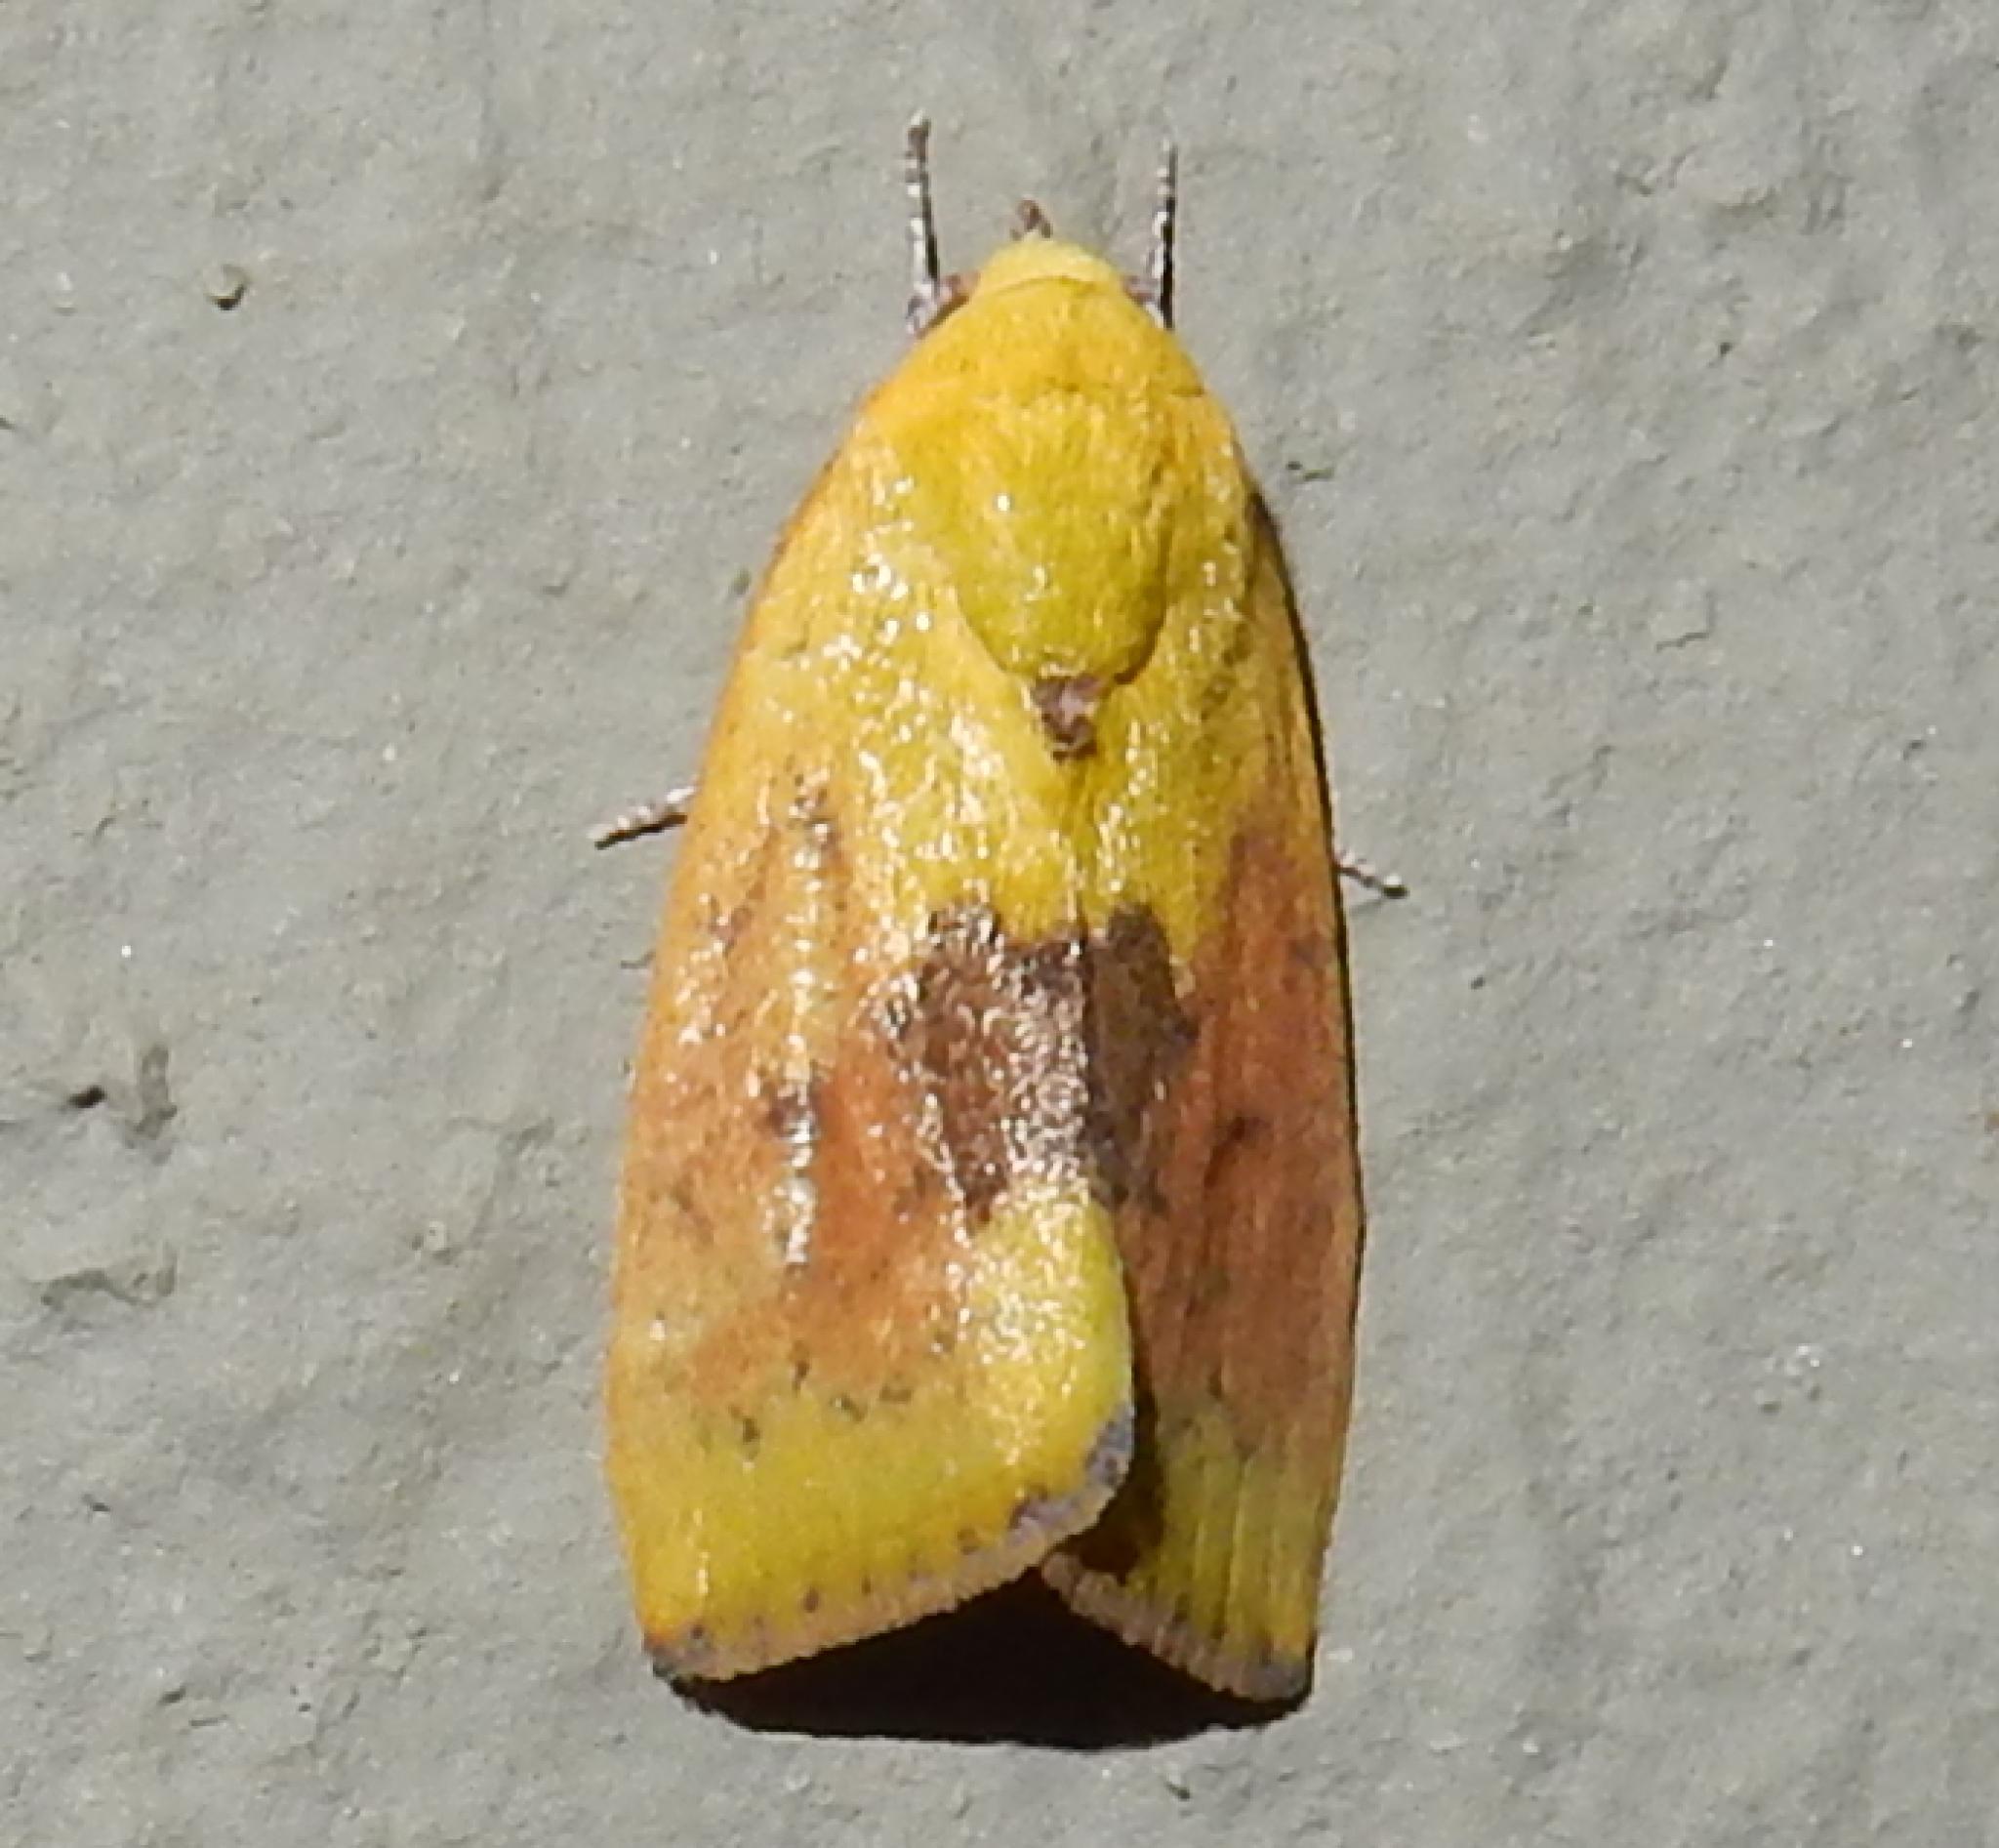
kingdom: Animalia
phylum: Arthropoda
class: Insecta
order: Lepidoptera
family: Nolidae
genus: Earias
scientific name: Earias biplaga
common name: Spiny bollworm
